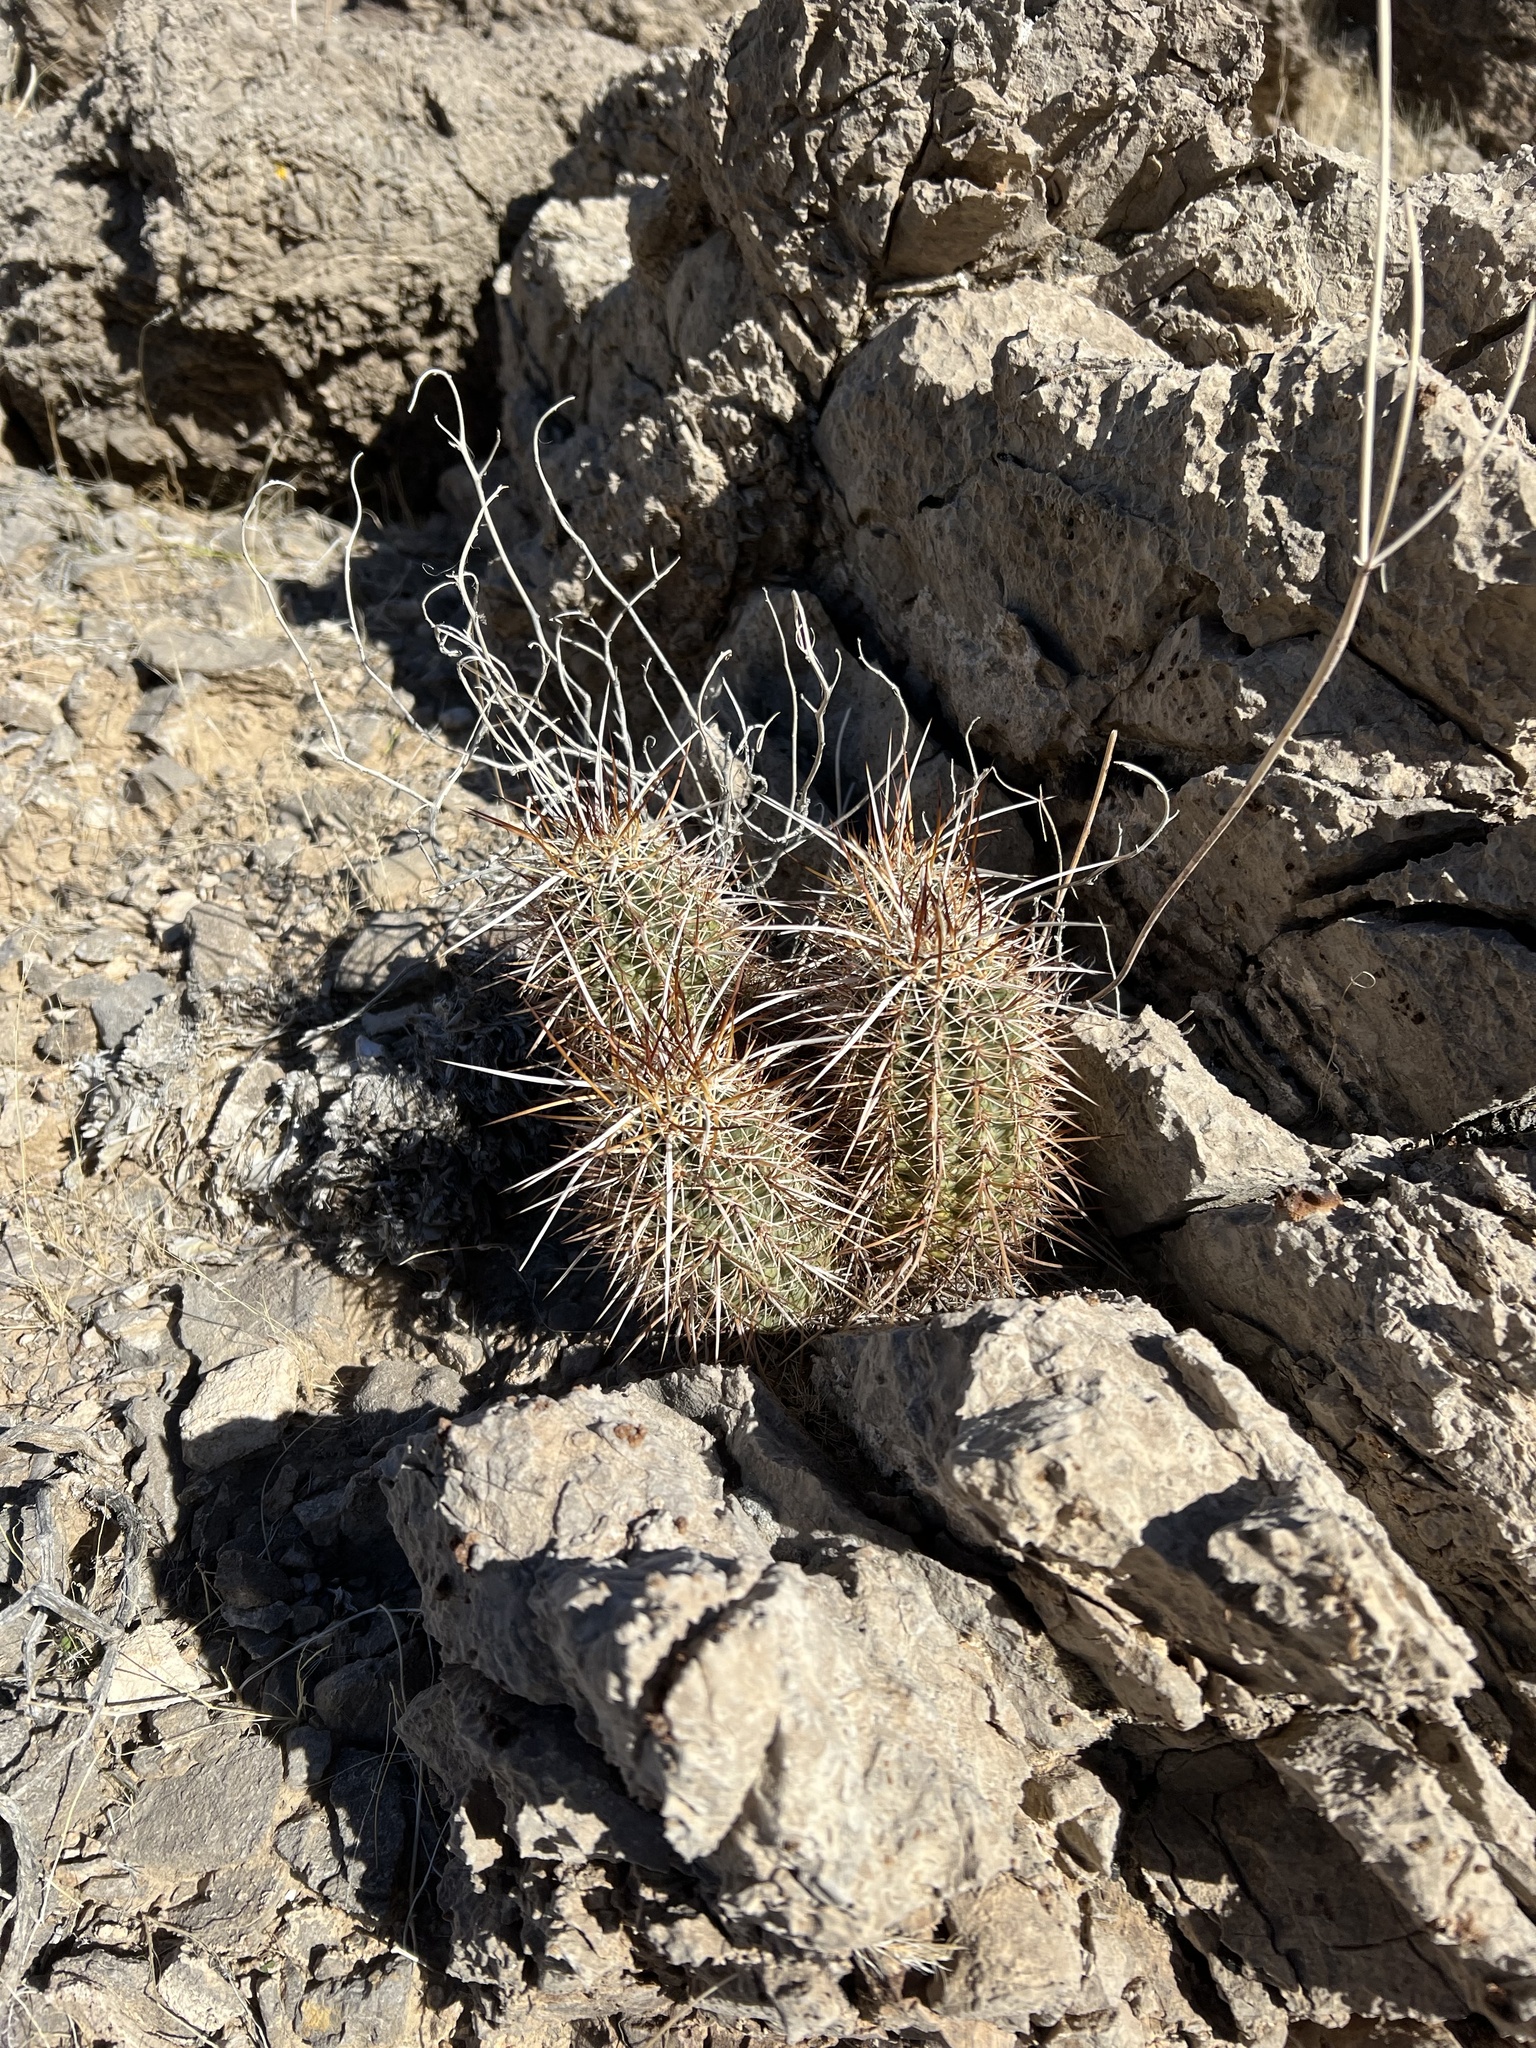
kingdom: Plantae
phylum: Tracheophyta
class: Magnoliopsida
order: Caryophyllales
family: Cactaceae
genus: Echinocereus
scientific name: Echinocereus engelmannii
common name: Engelmann's hedgehog cactus
